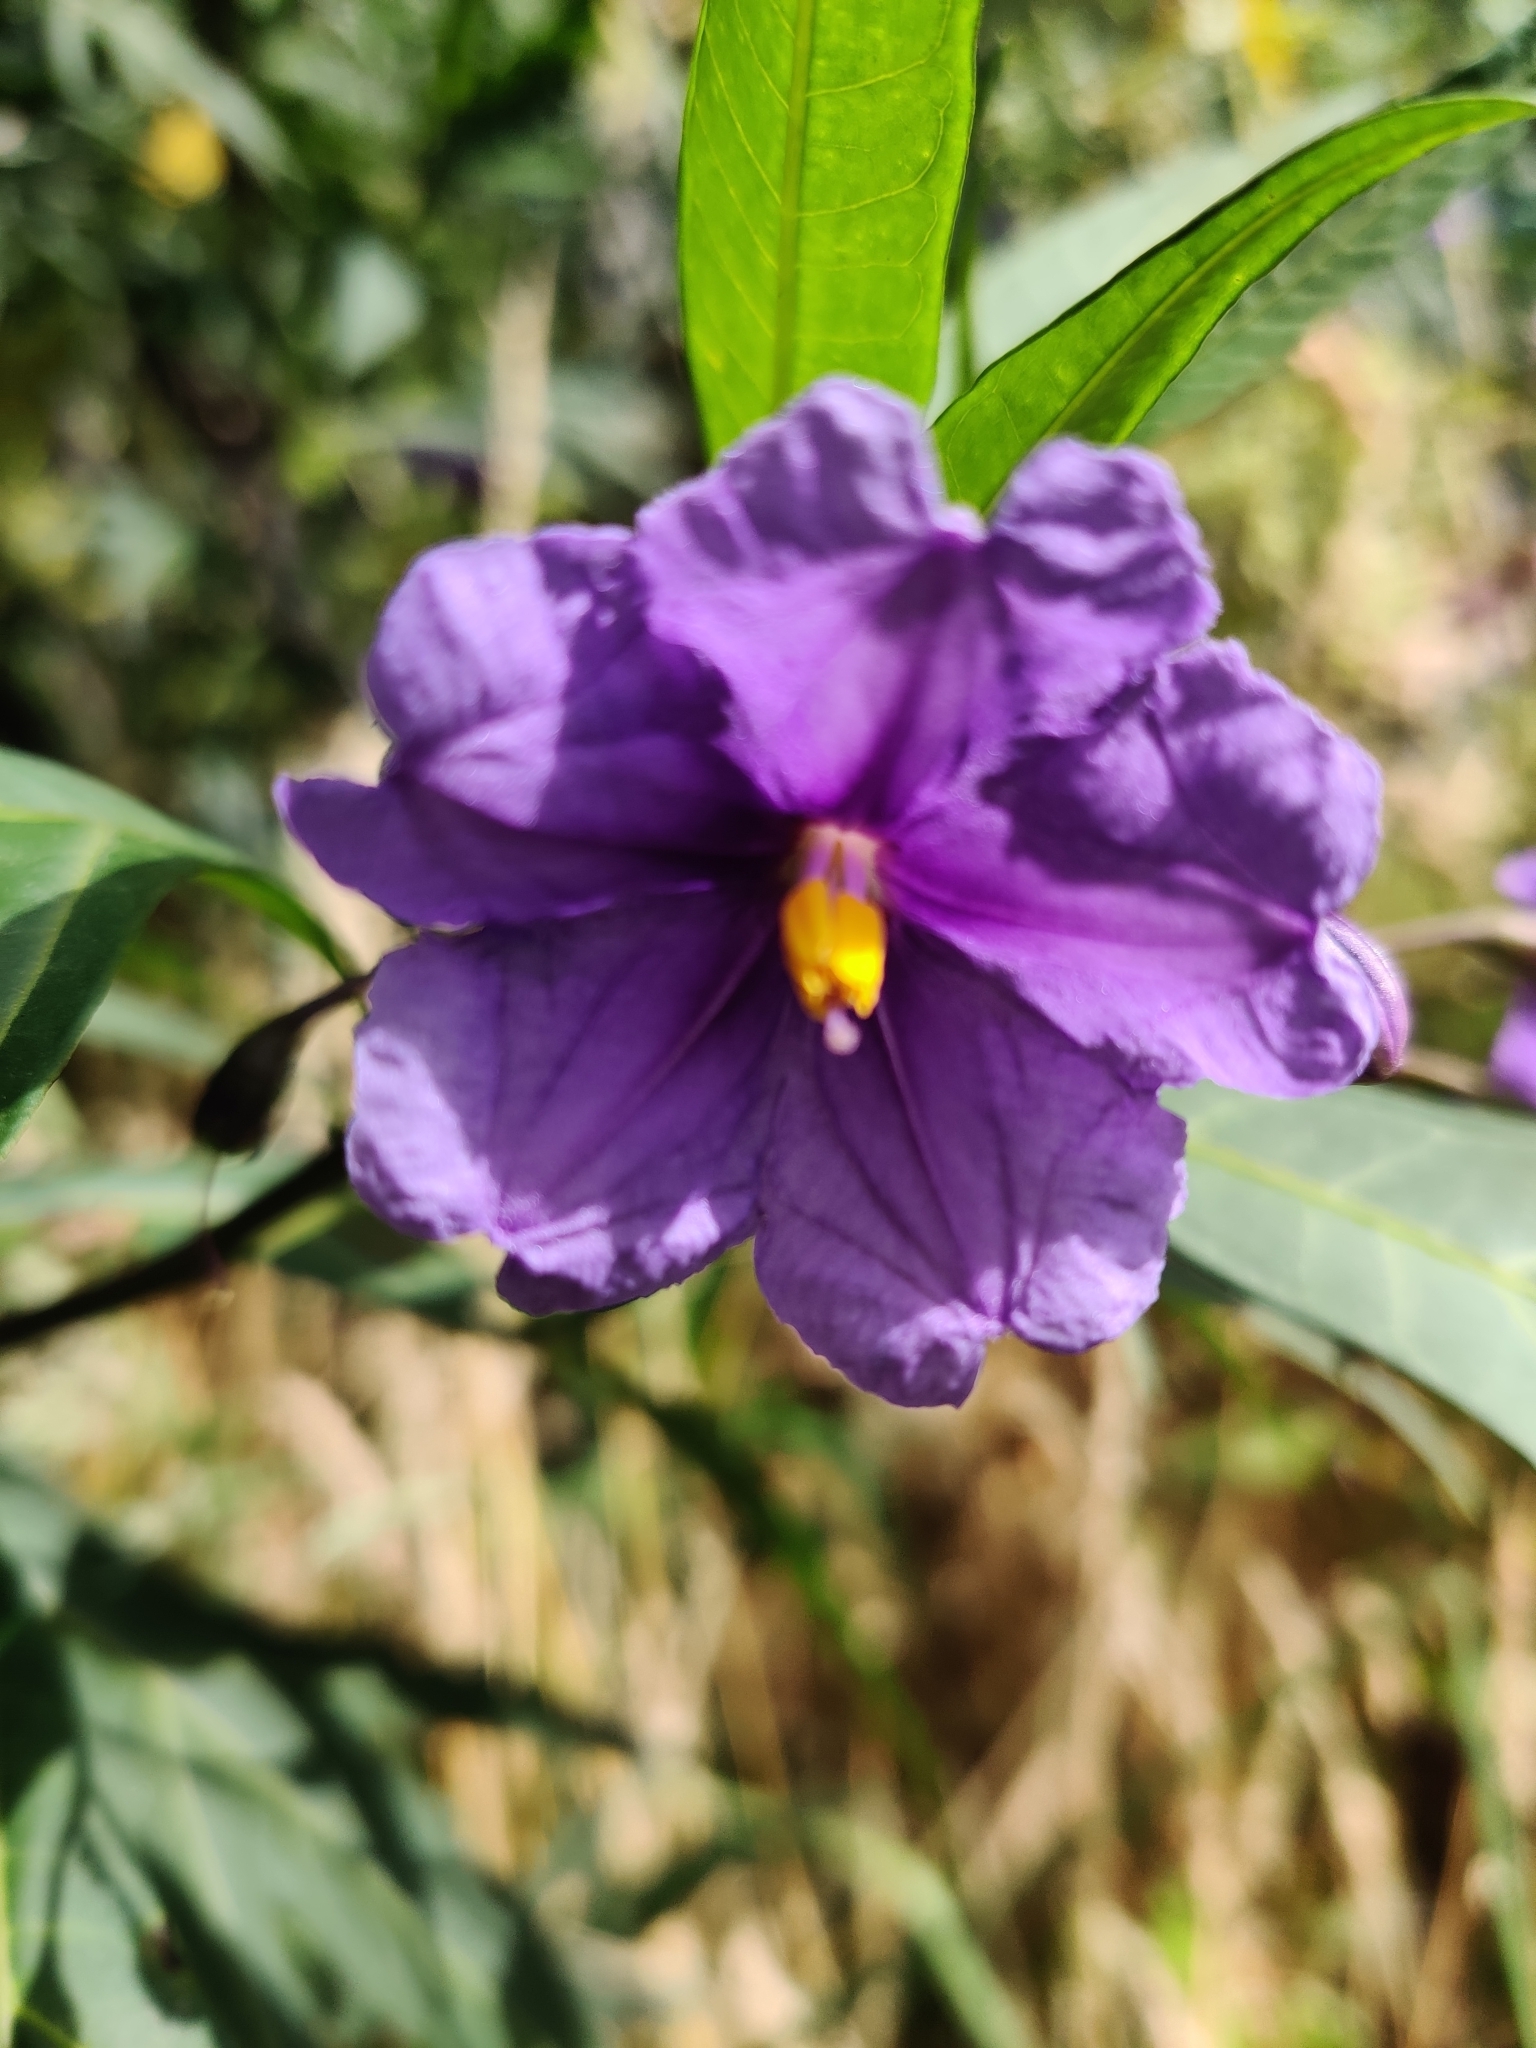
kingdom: Plantae
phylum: Tracheophyta
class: Magnoliopsida
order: Solanales
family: Solanaceae
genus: Solanum
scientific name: Solanum laciniatum
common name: Kangaroo-apple
